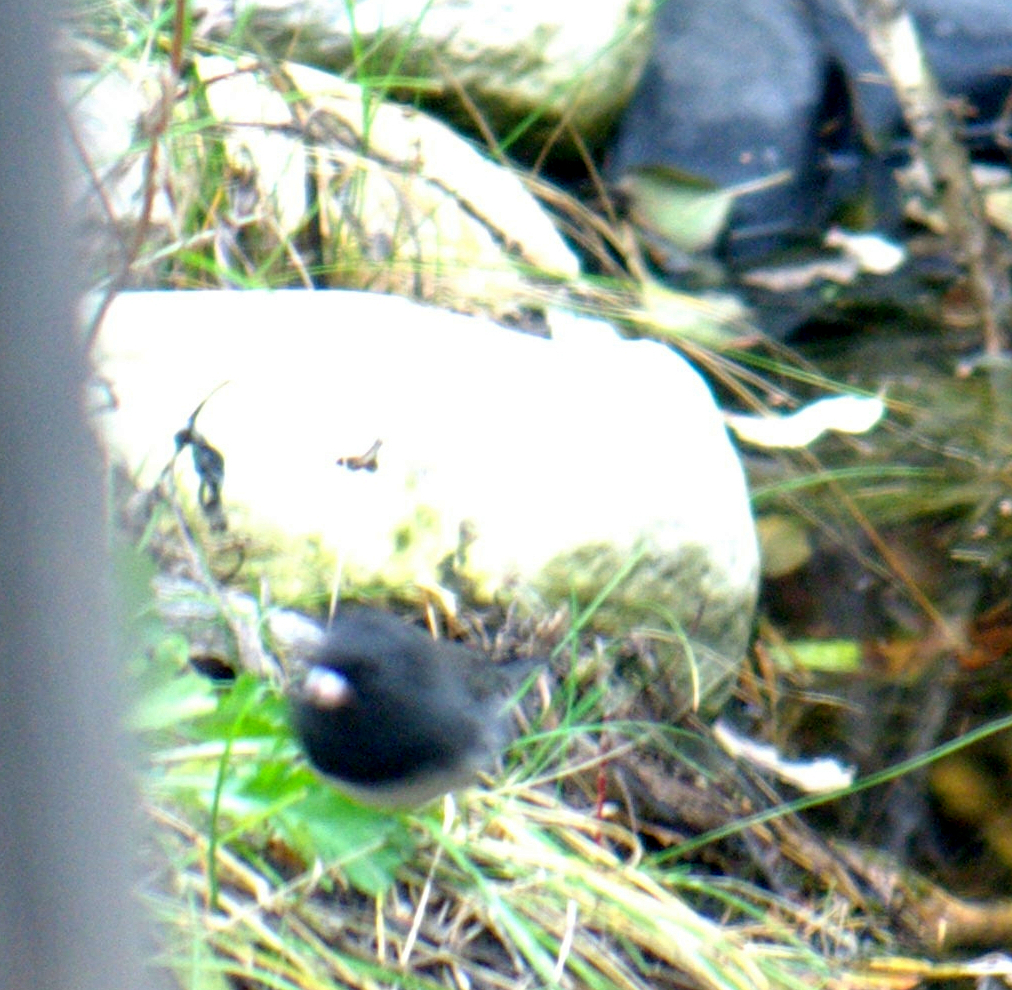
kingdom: Animalia
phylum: Chordata
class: Aves
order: Passeriformes
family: Passerellidae
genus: Junco
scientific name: Junco hyemalis
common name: Dark-eyed junco
